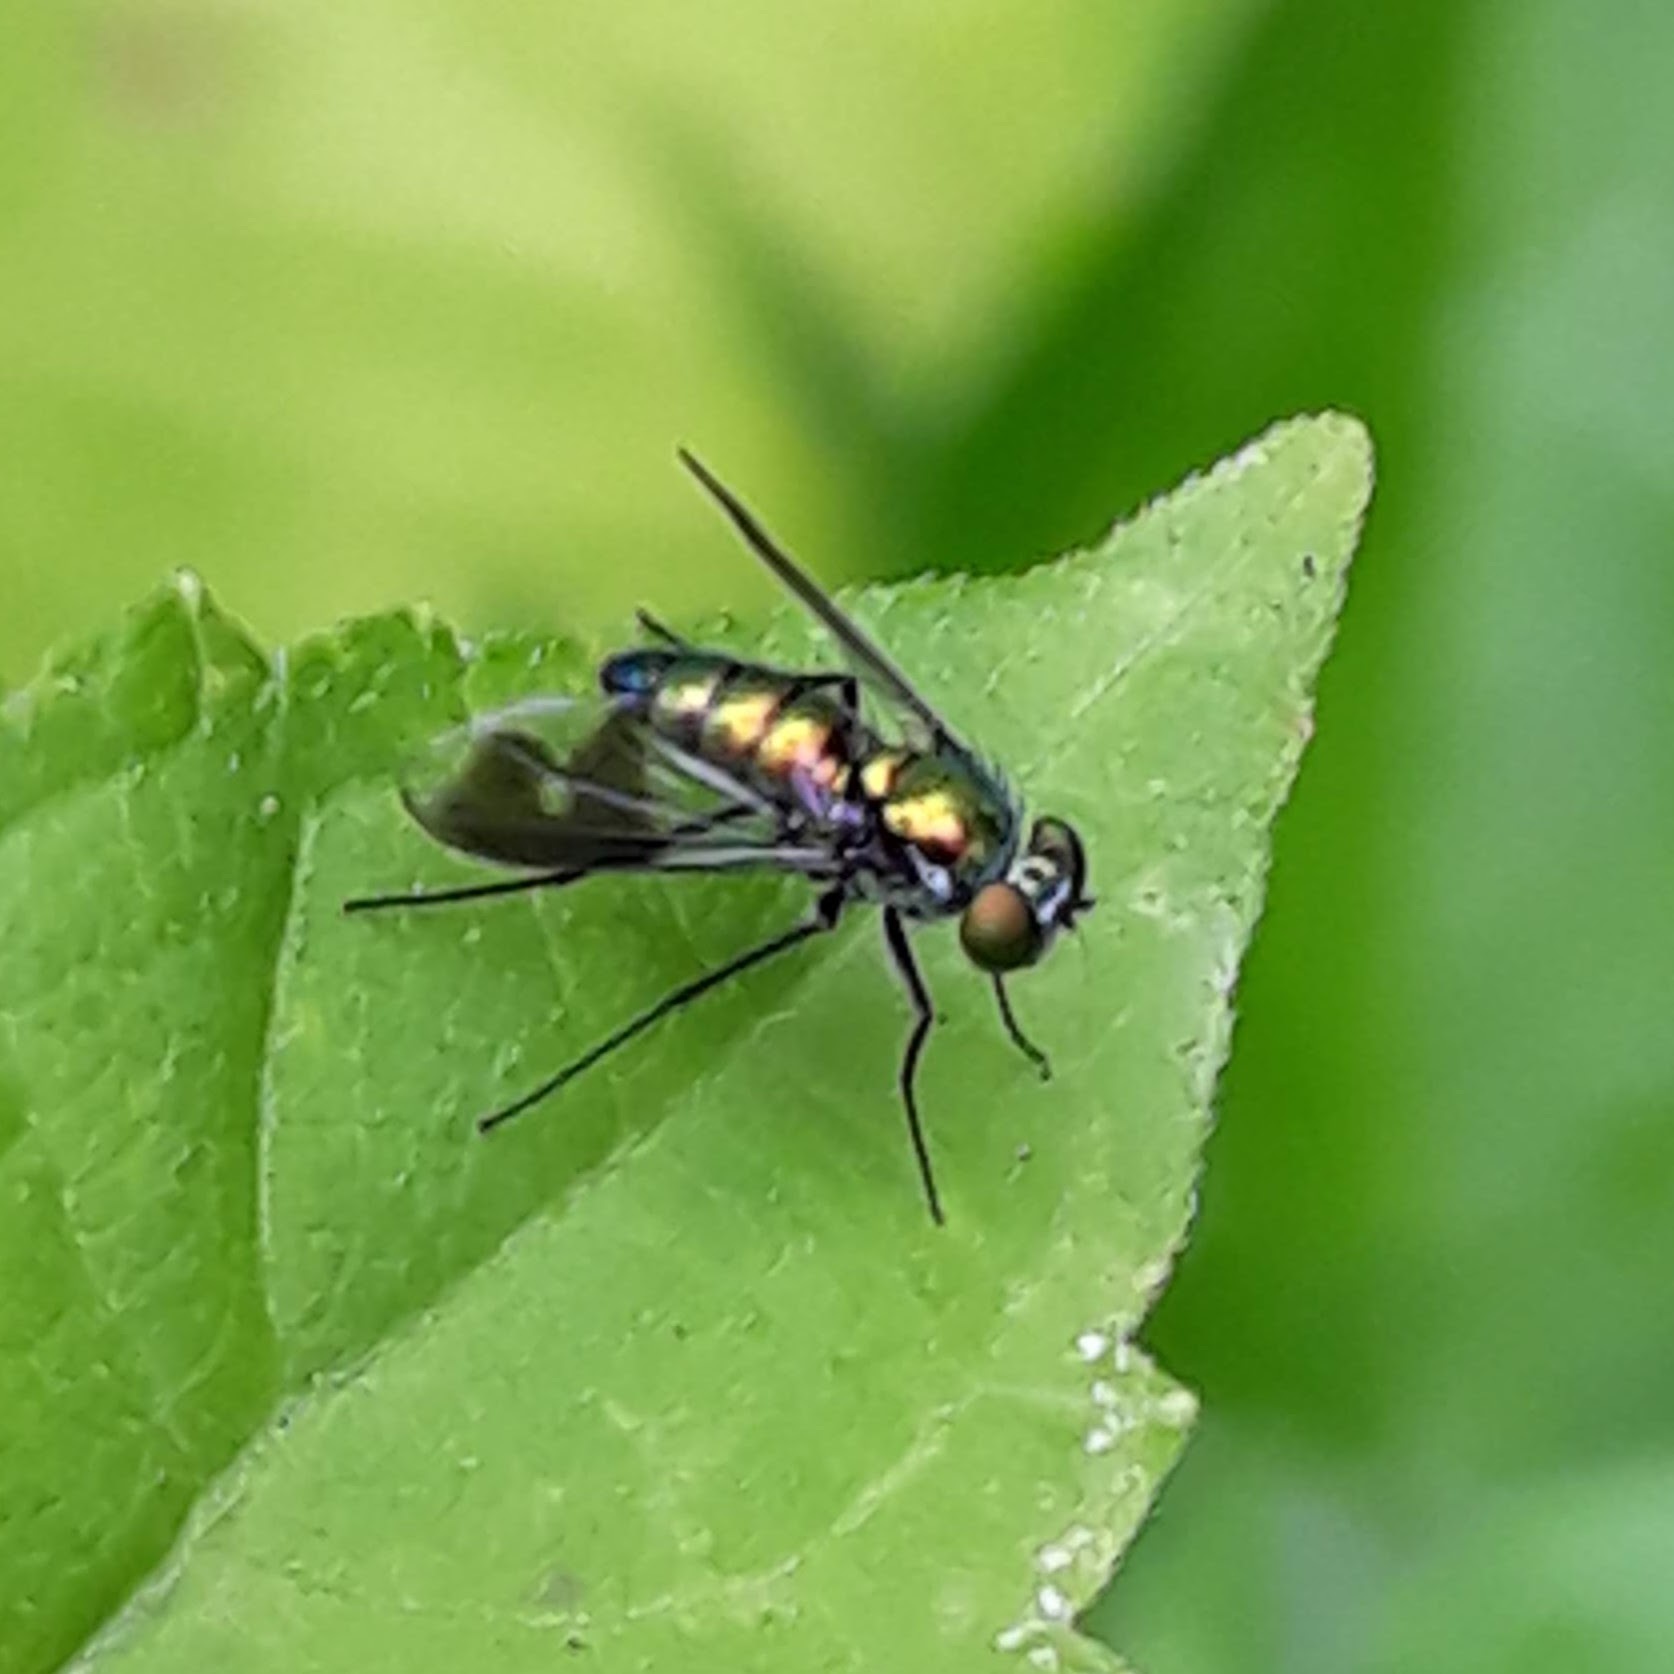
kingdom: Animalia
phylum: Arthropoda
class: Insecta
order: Diptera
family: Dolichopodidae
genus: Condylostylus
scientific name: Condylostylus patibulatus
